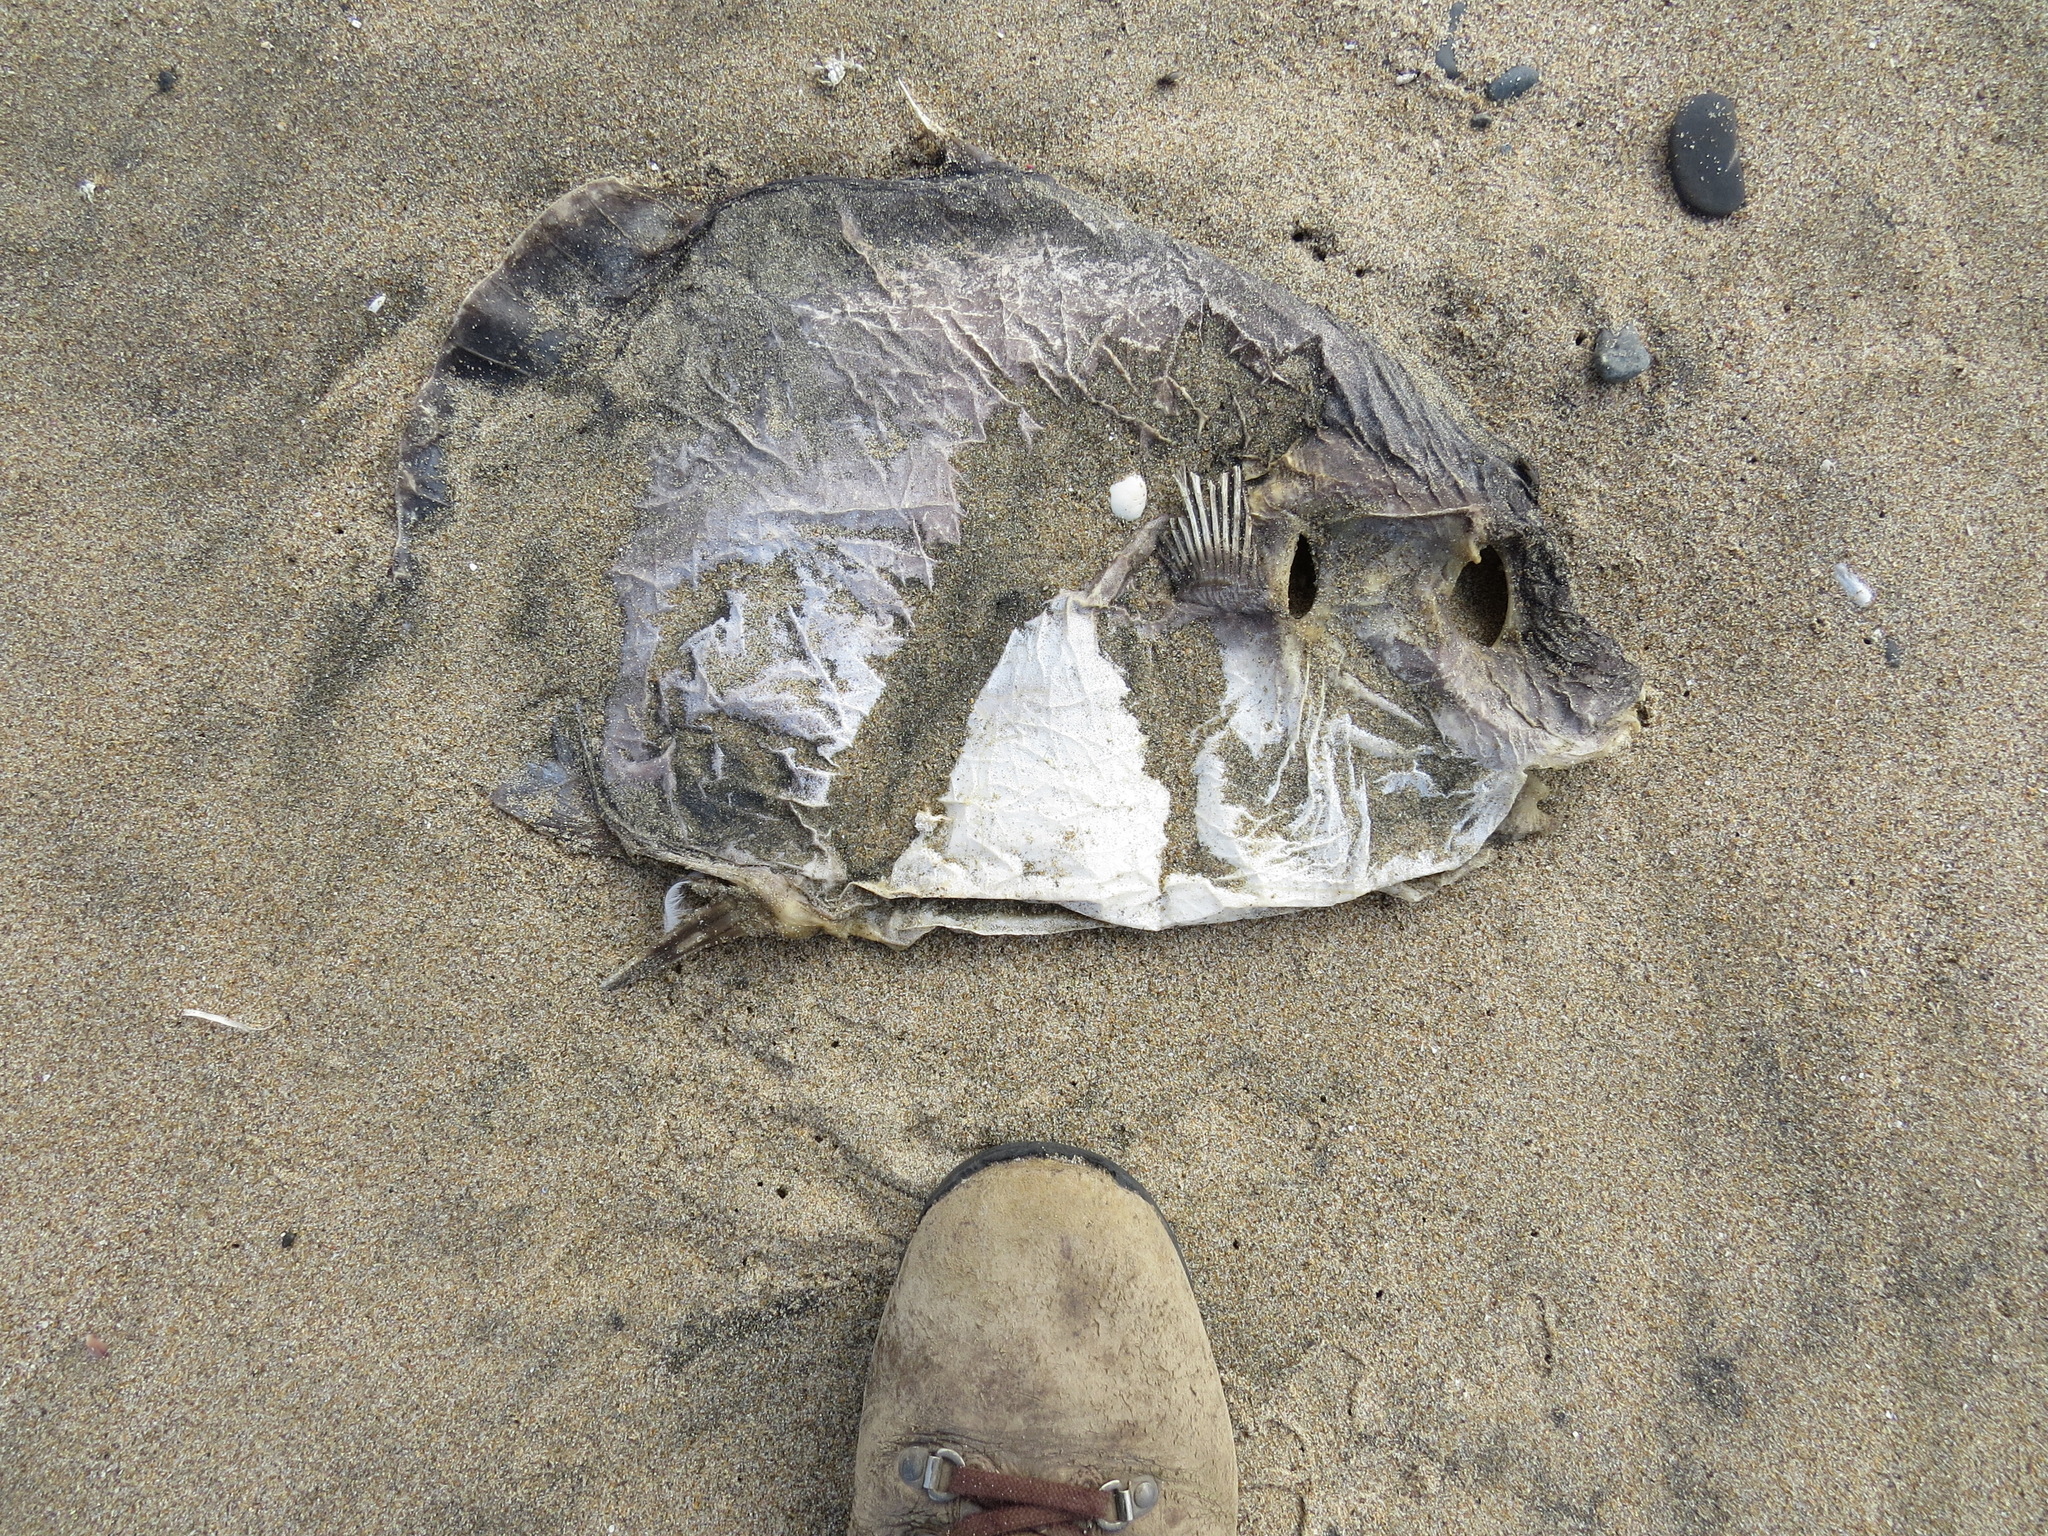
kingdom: Animalia
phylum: Chordata
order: Tetraodontiformes
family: Molidae
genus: Mola
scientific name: Mola mola
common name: Ocean sunfish
